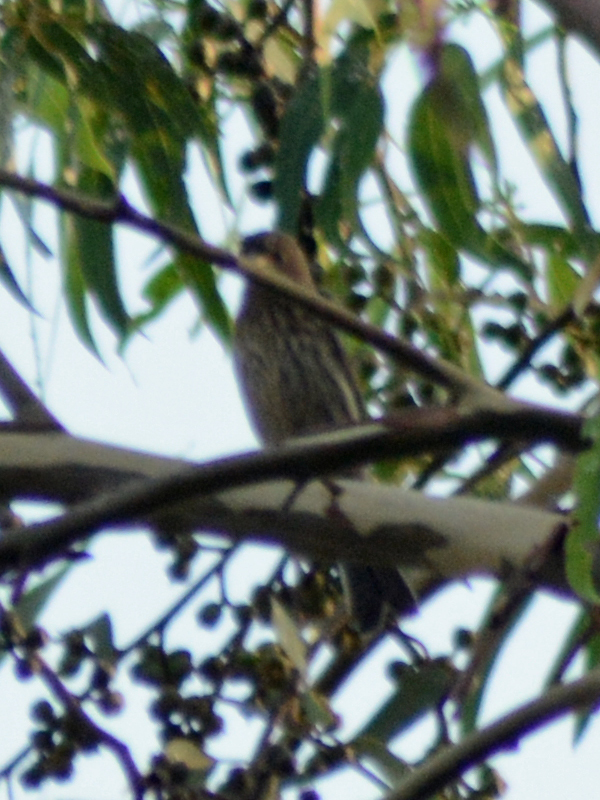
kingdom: Animalia
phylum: Chordata
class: Aves
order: Passeriformes
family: Fringillidae
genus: Haemorhous
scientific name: Haemorhous mexicanus
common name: House finch
